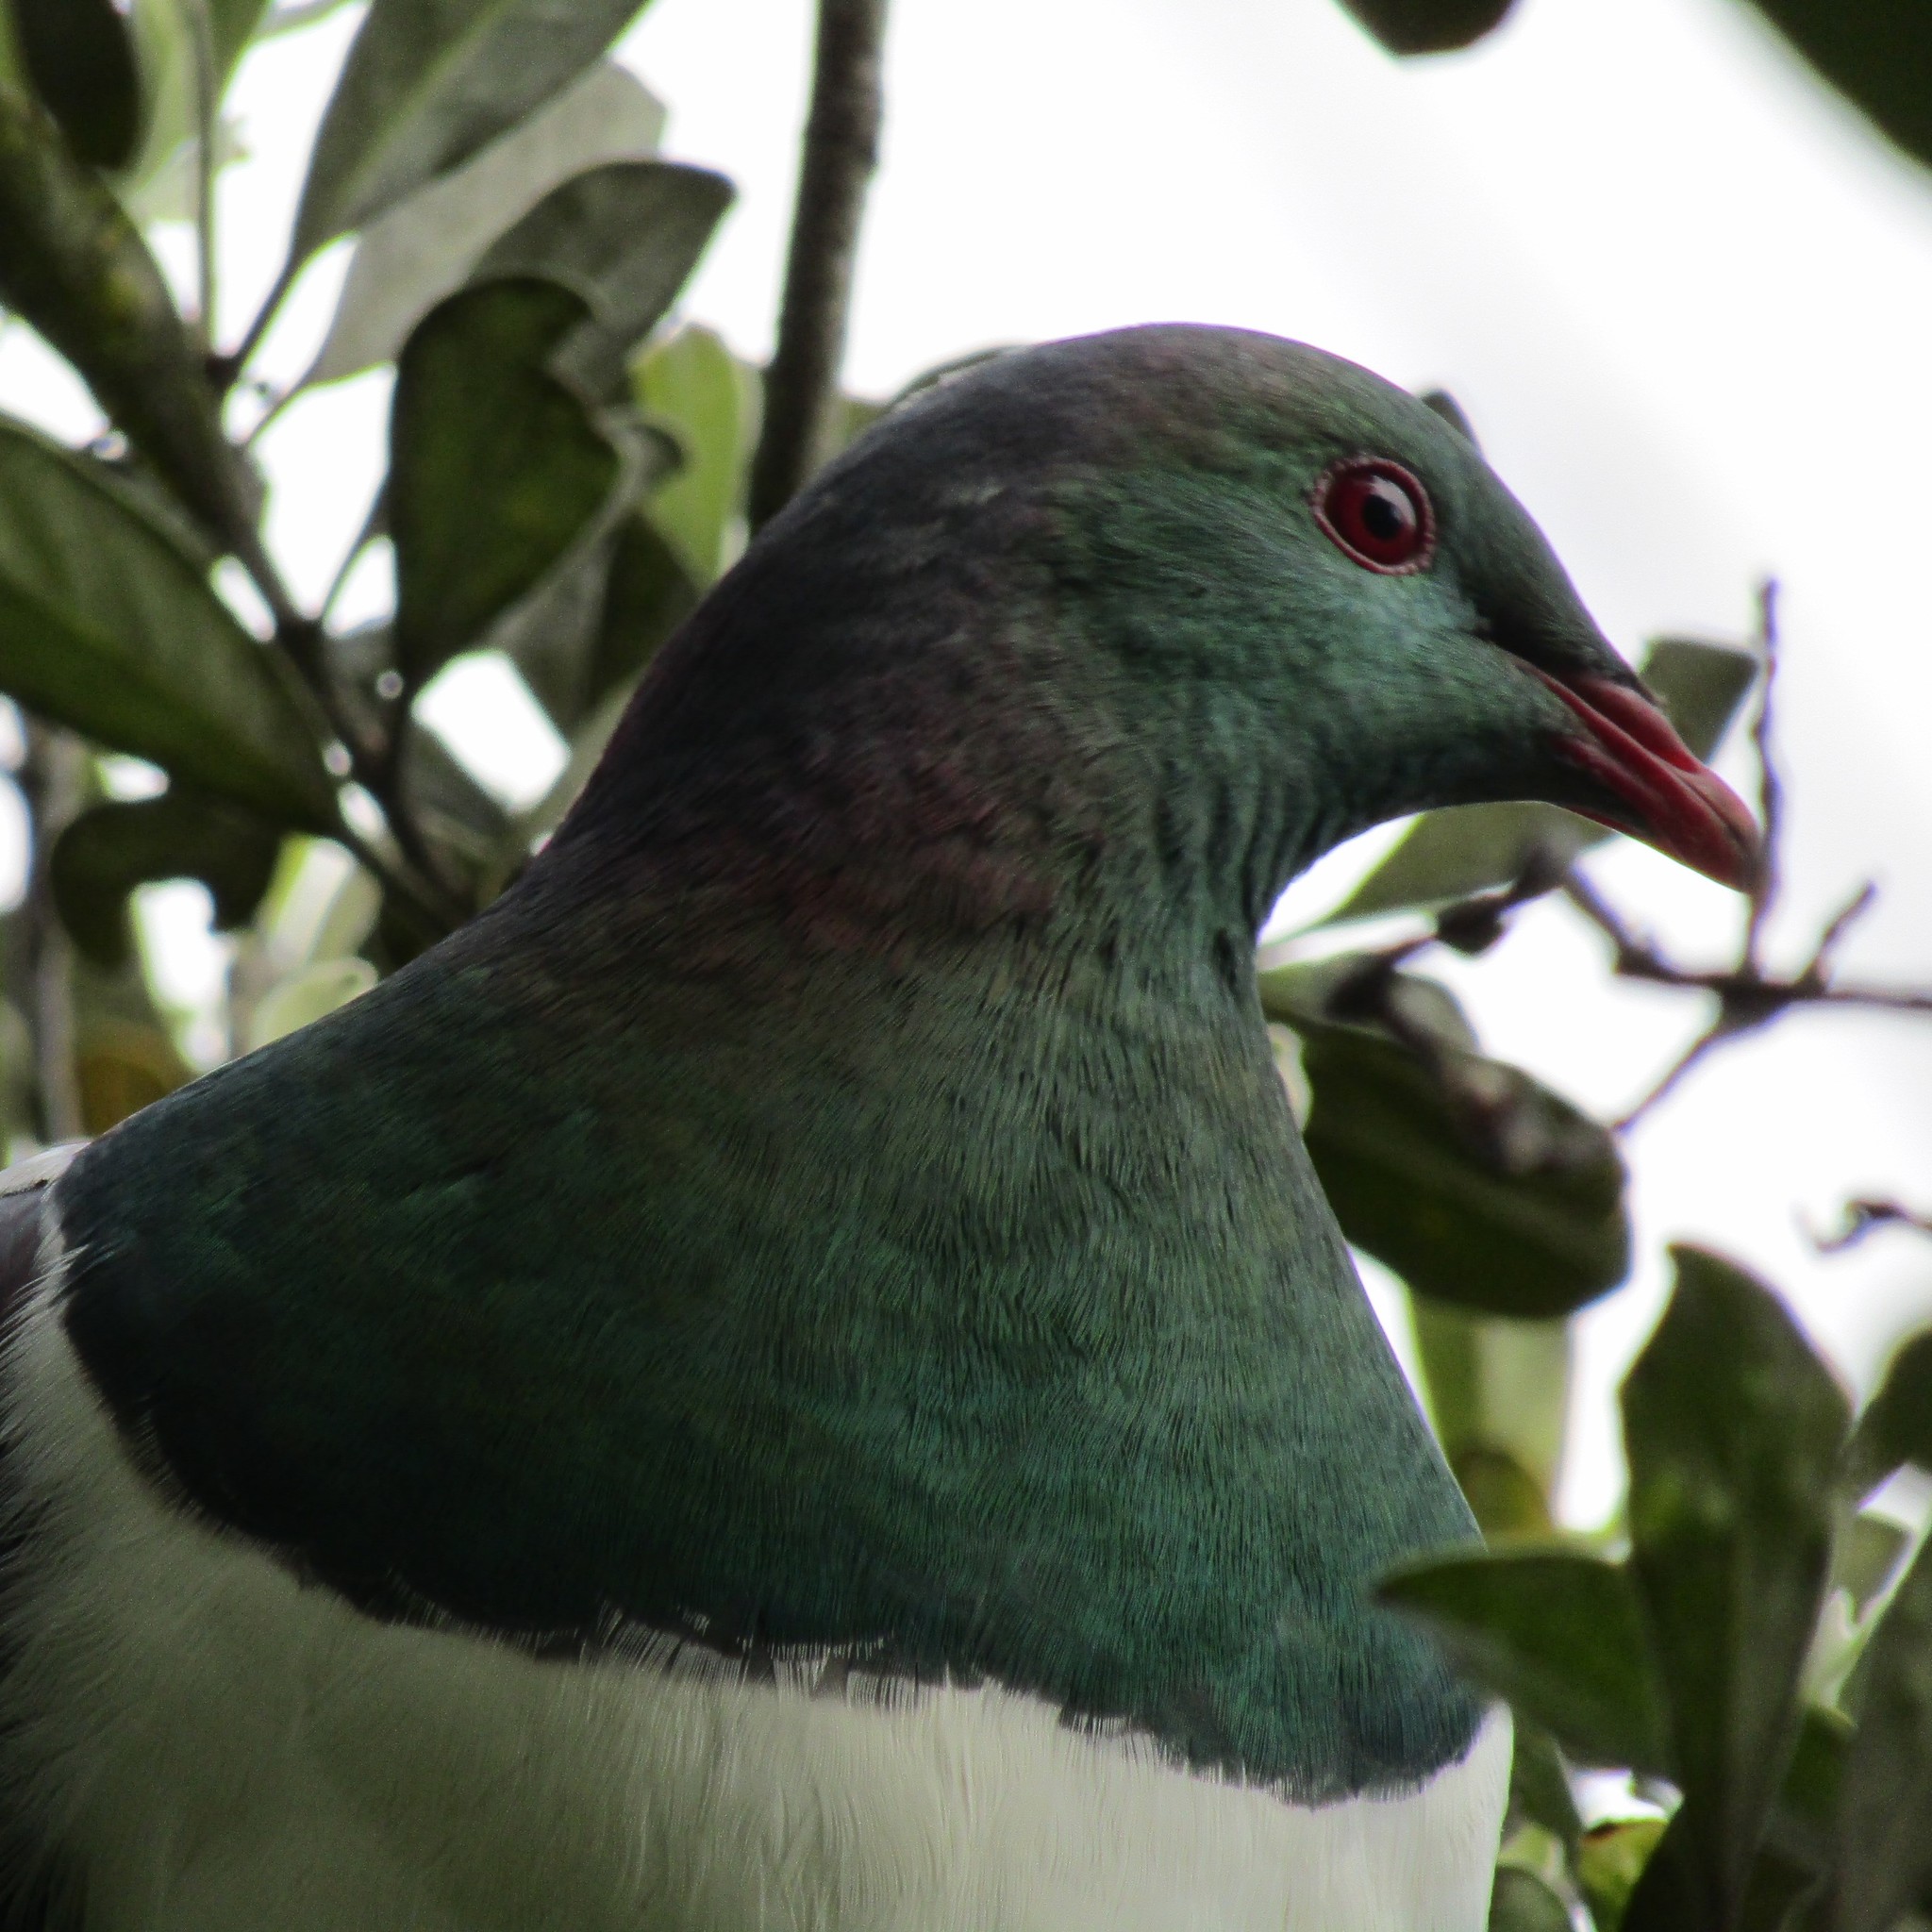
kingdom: Animalia
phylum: Chordata
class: Aves
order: Columbiformes
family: Columbidae
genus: Hemiphaga
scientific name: Hemiphaga novaeseelandiae
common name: New zealand pigeon
